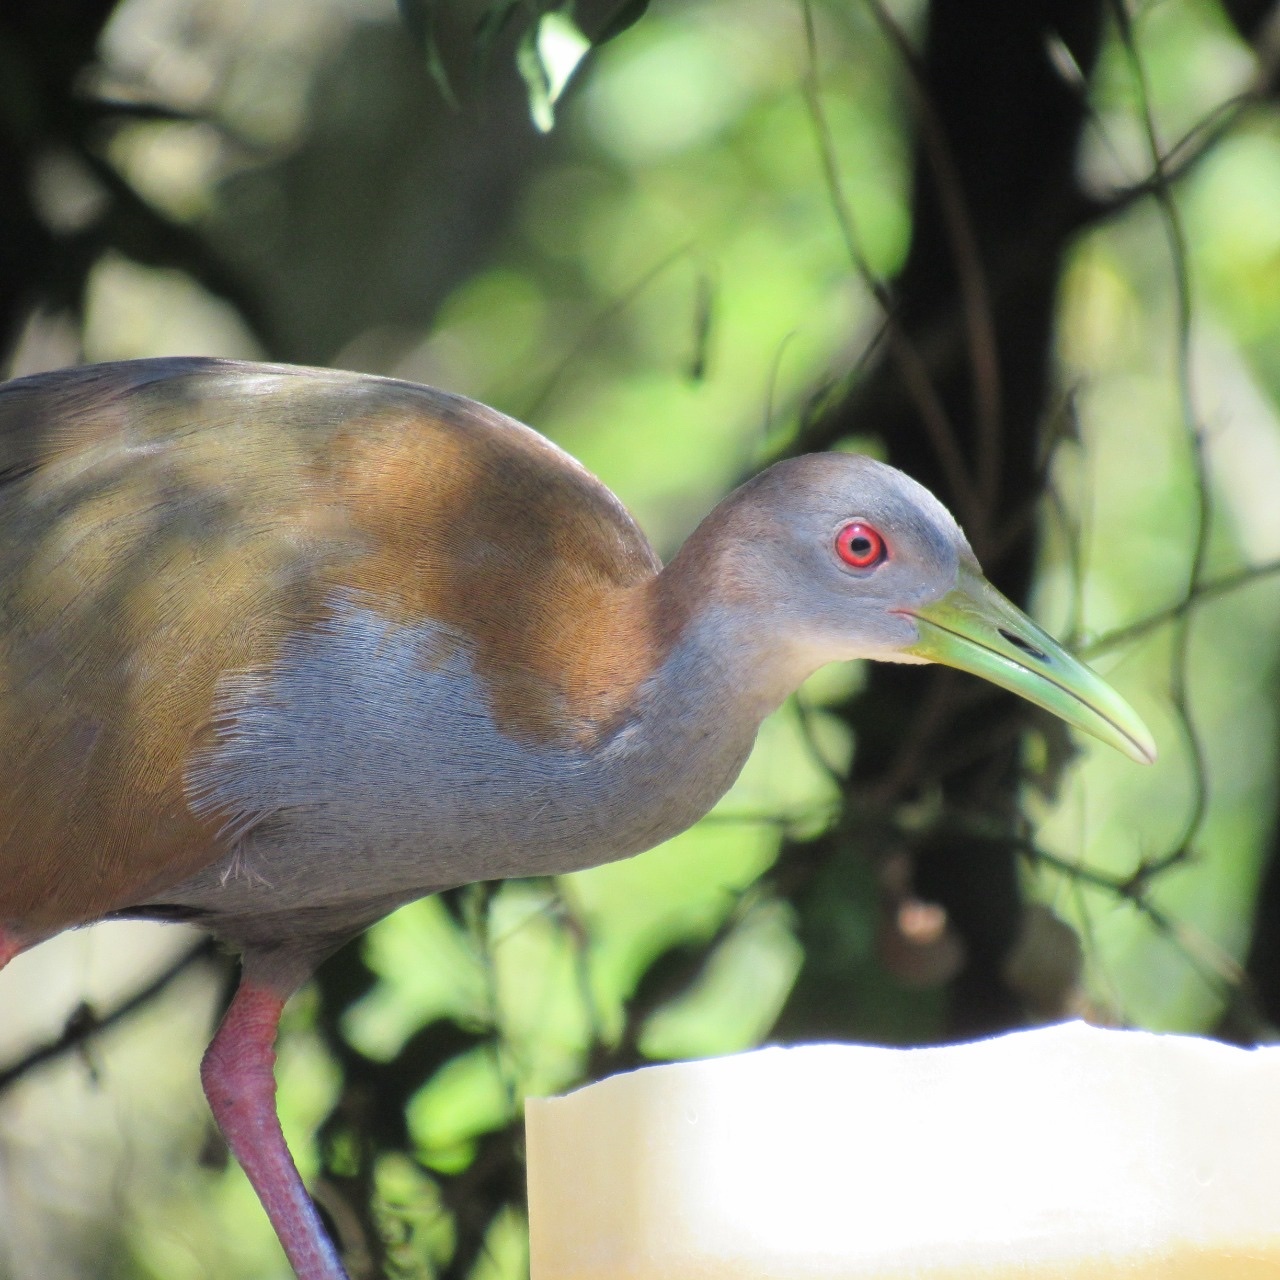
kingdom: Animalia
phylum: Chordata
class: Aves
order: Gruiformes
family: Rallidae
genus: Aramides
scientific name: Aramides saracura
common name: Slaty-breasted wood rail
